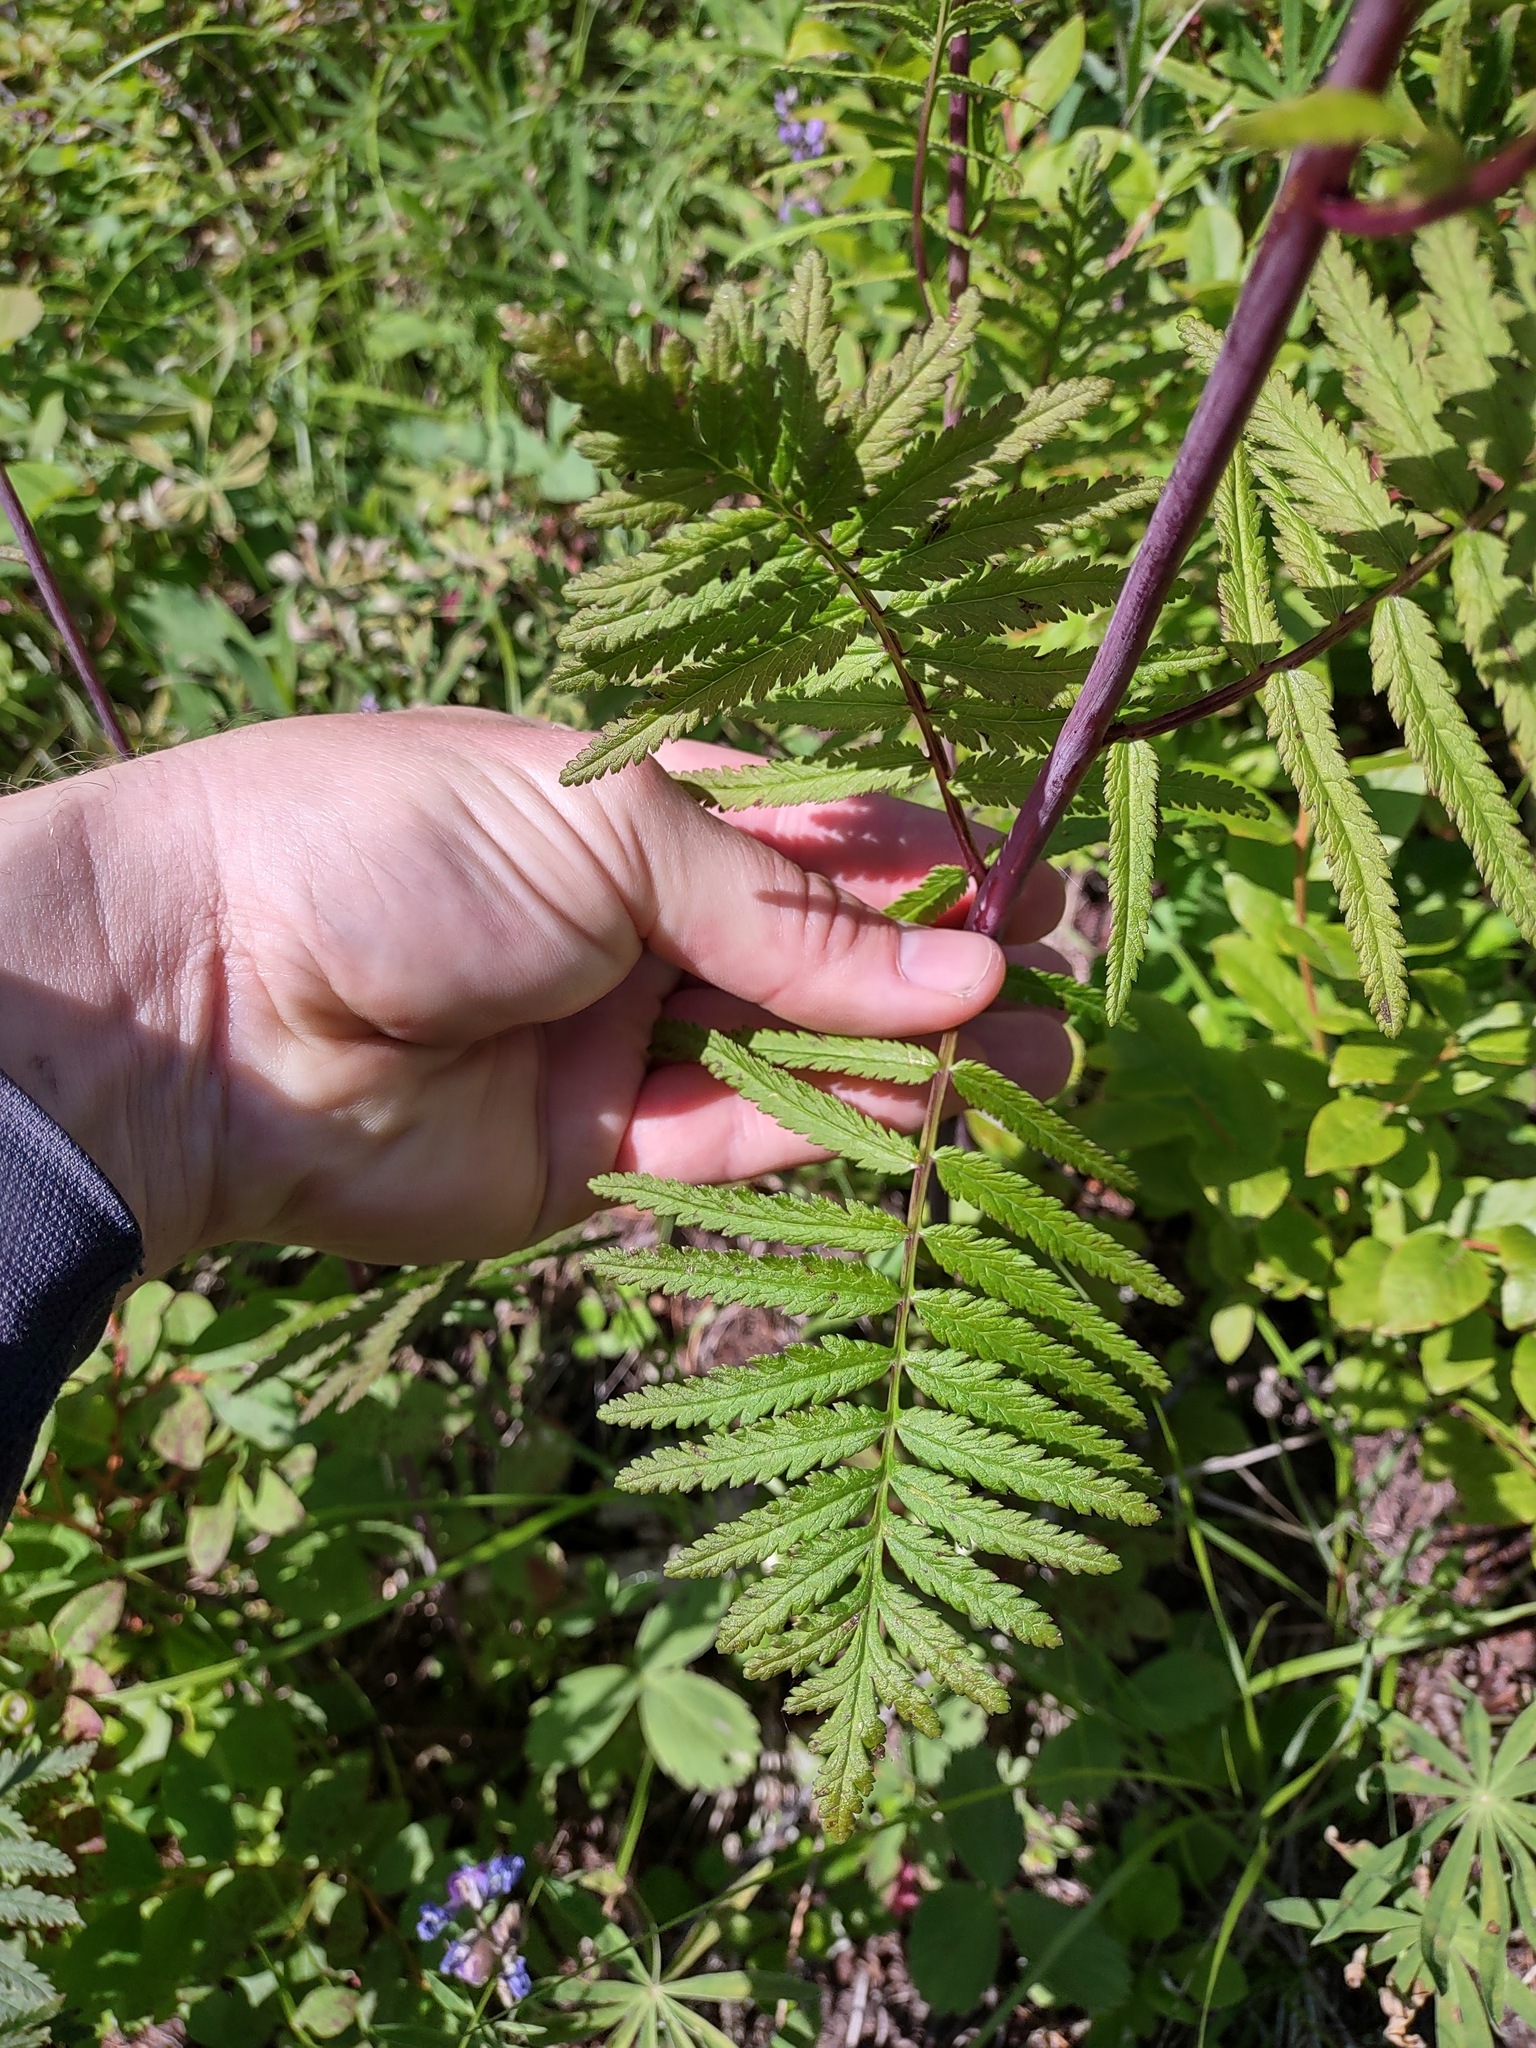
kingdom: Plantae
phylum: Tracheophyta
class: Magnoliopsida
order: Lamiales
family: Orobanchaceae
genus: Pedicularis
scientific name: Pedicularis bracteosa
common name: Bracted lousewort
